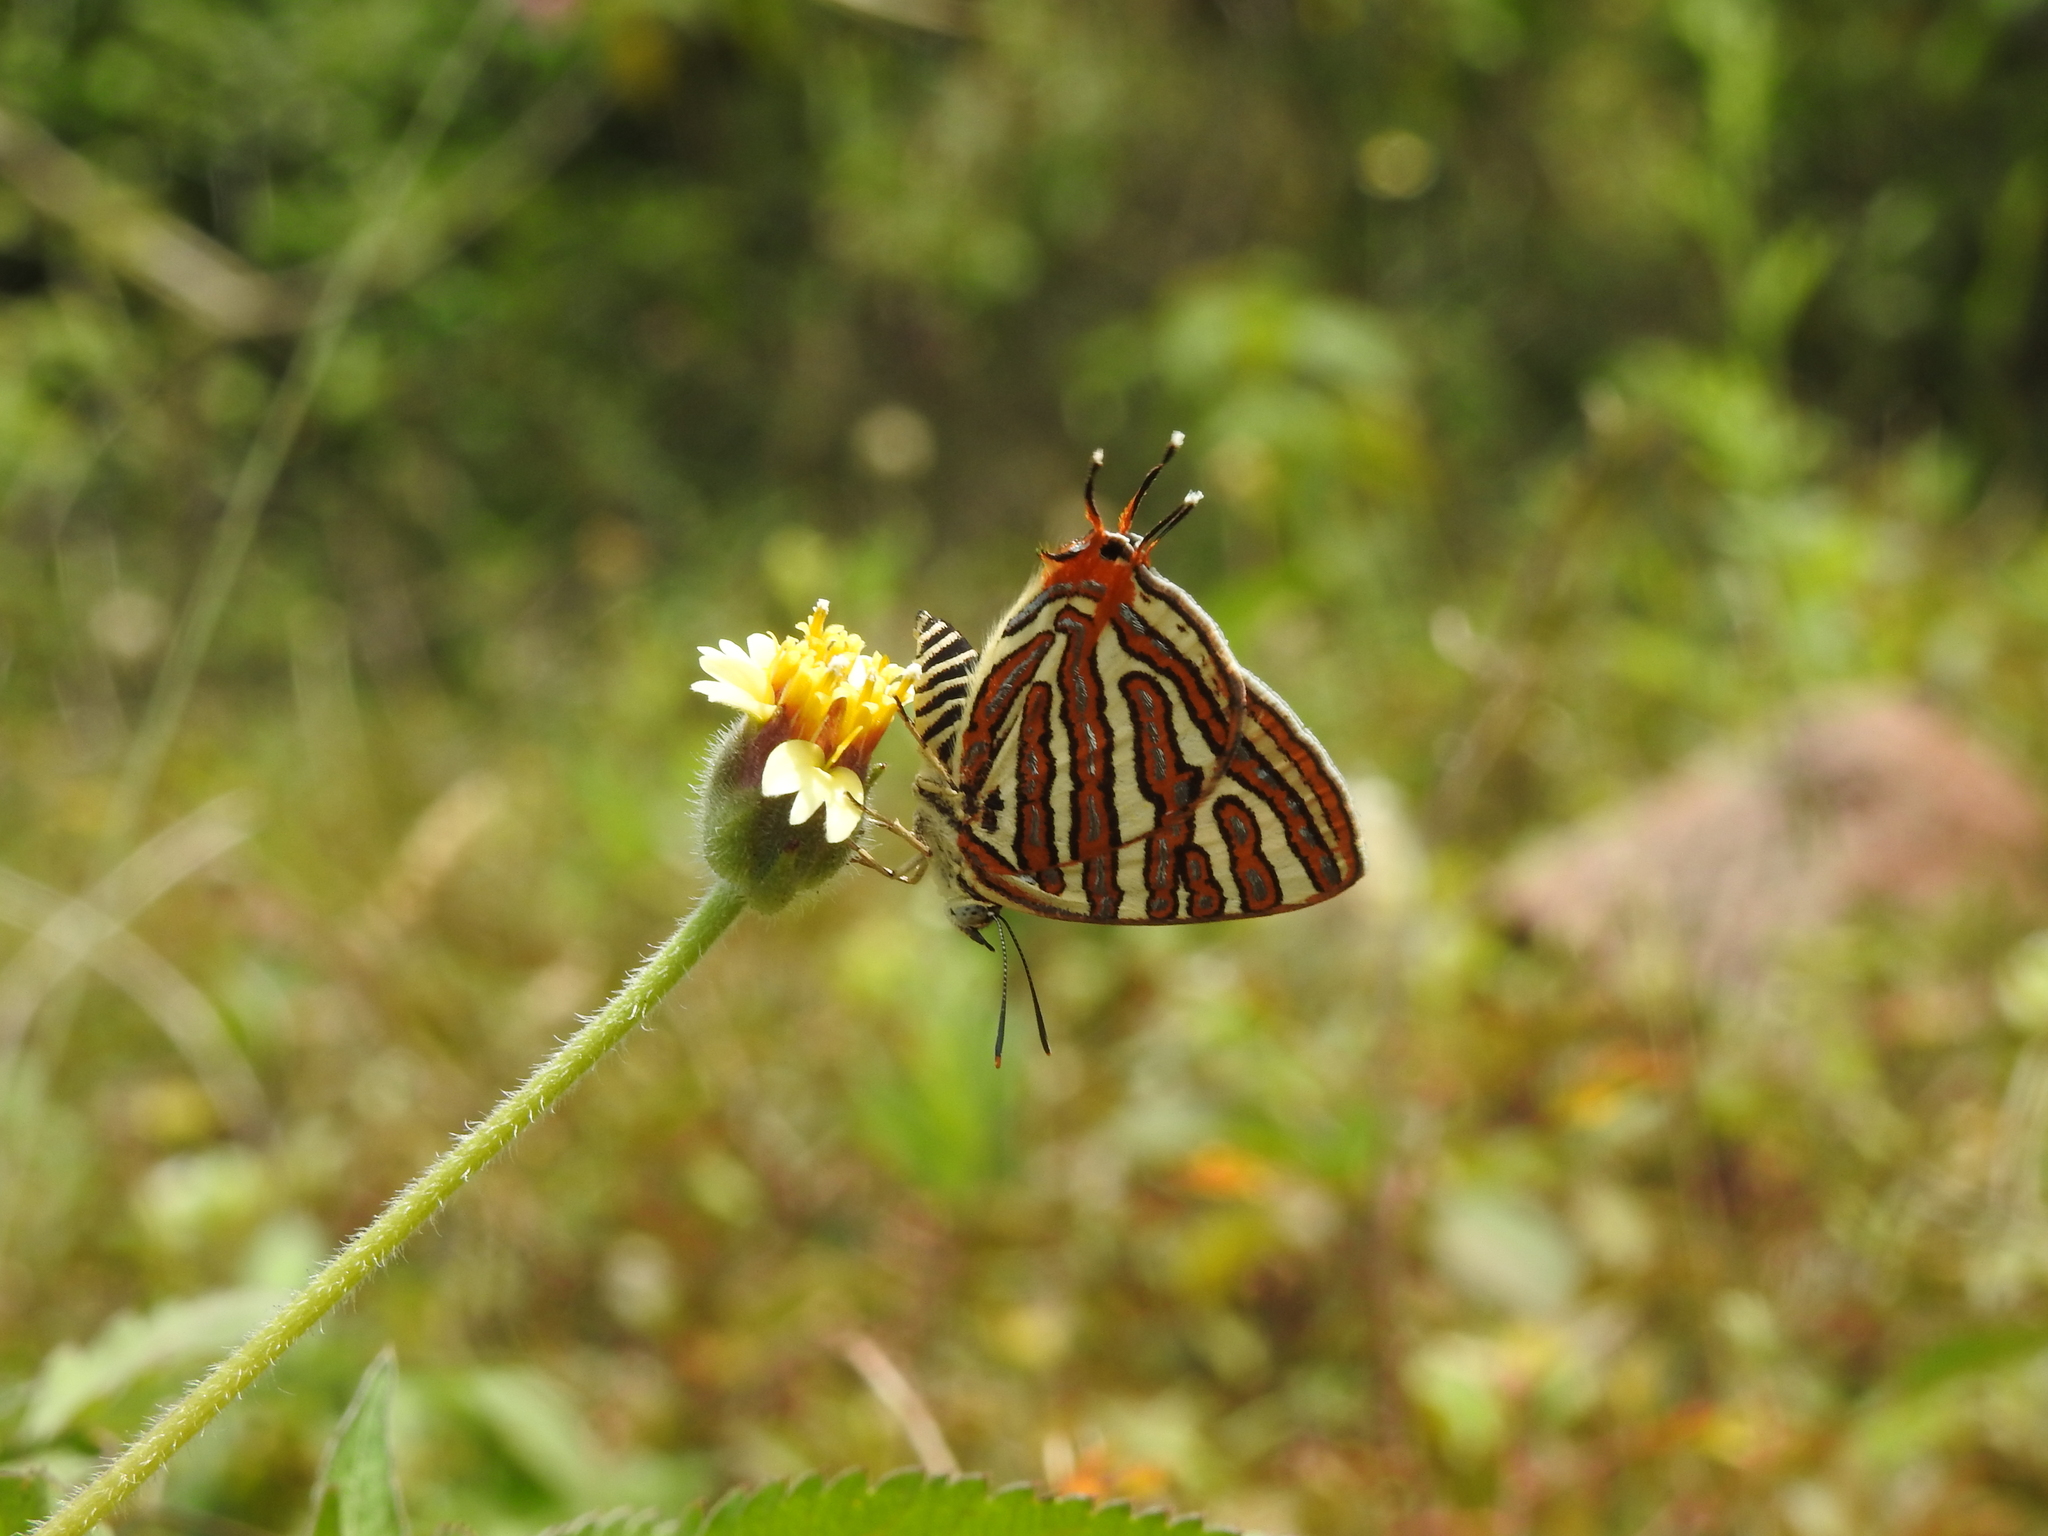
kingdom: Animalia
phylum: Arthropoda
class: Insecta
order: Lepidoptera
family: Lycaenidae
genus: Cigaritis
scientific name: Cigaritis vulcanus
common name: Common silverline
